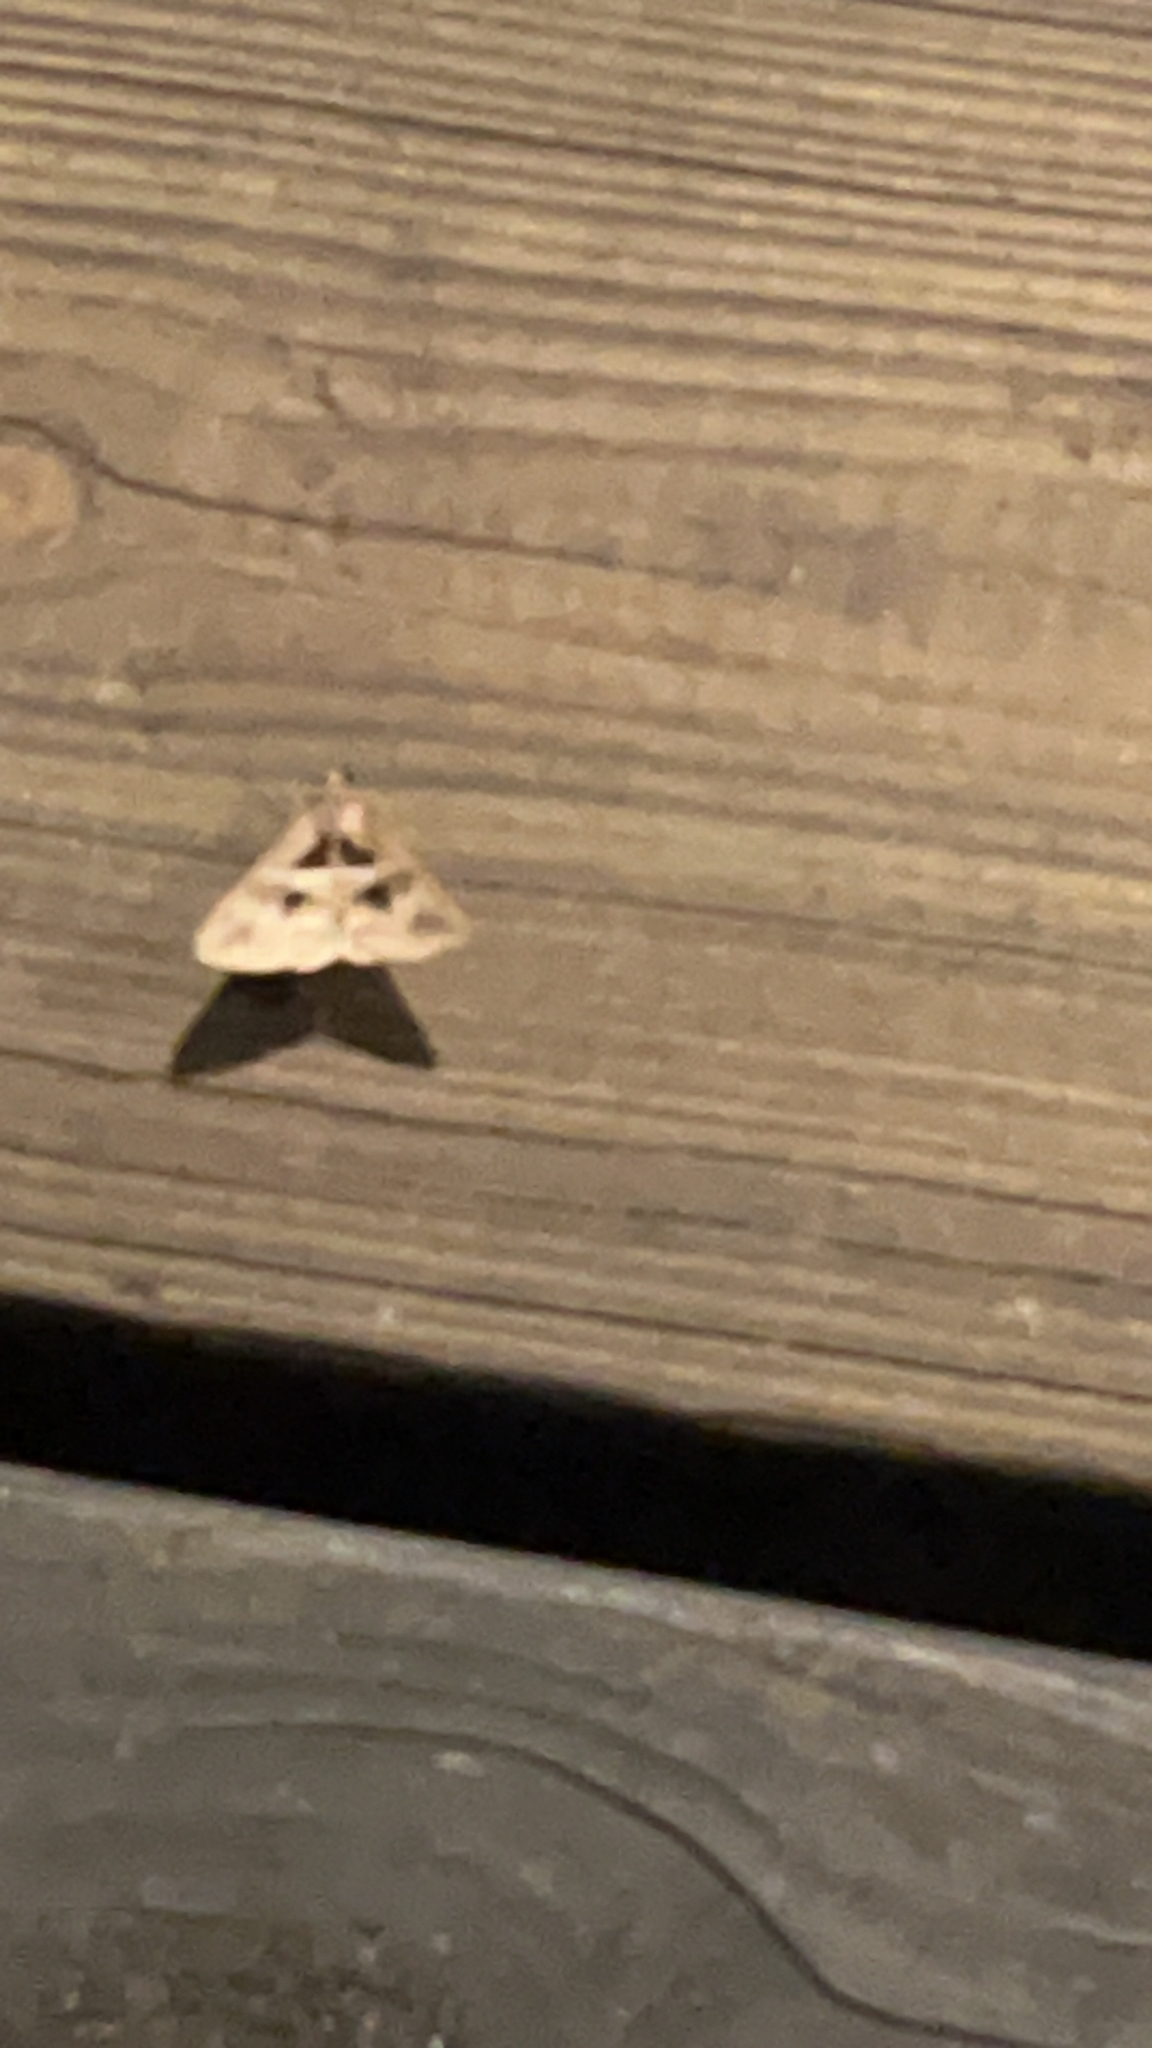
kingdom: Animalia
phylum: Arthropoda
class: Insecta
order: Lepidoptera
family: Erebidae
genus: Melipotis
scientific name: Melipotis cellaris
